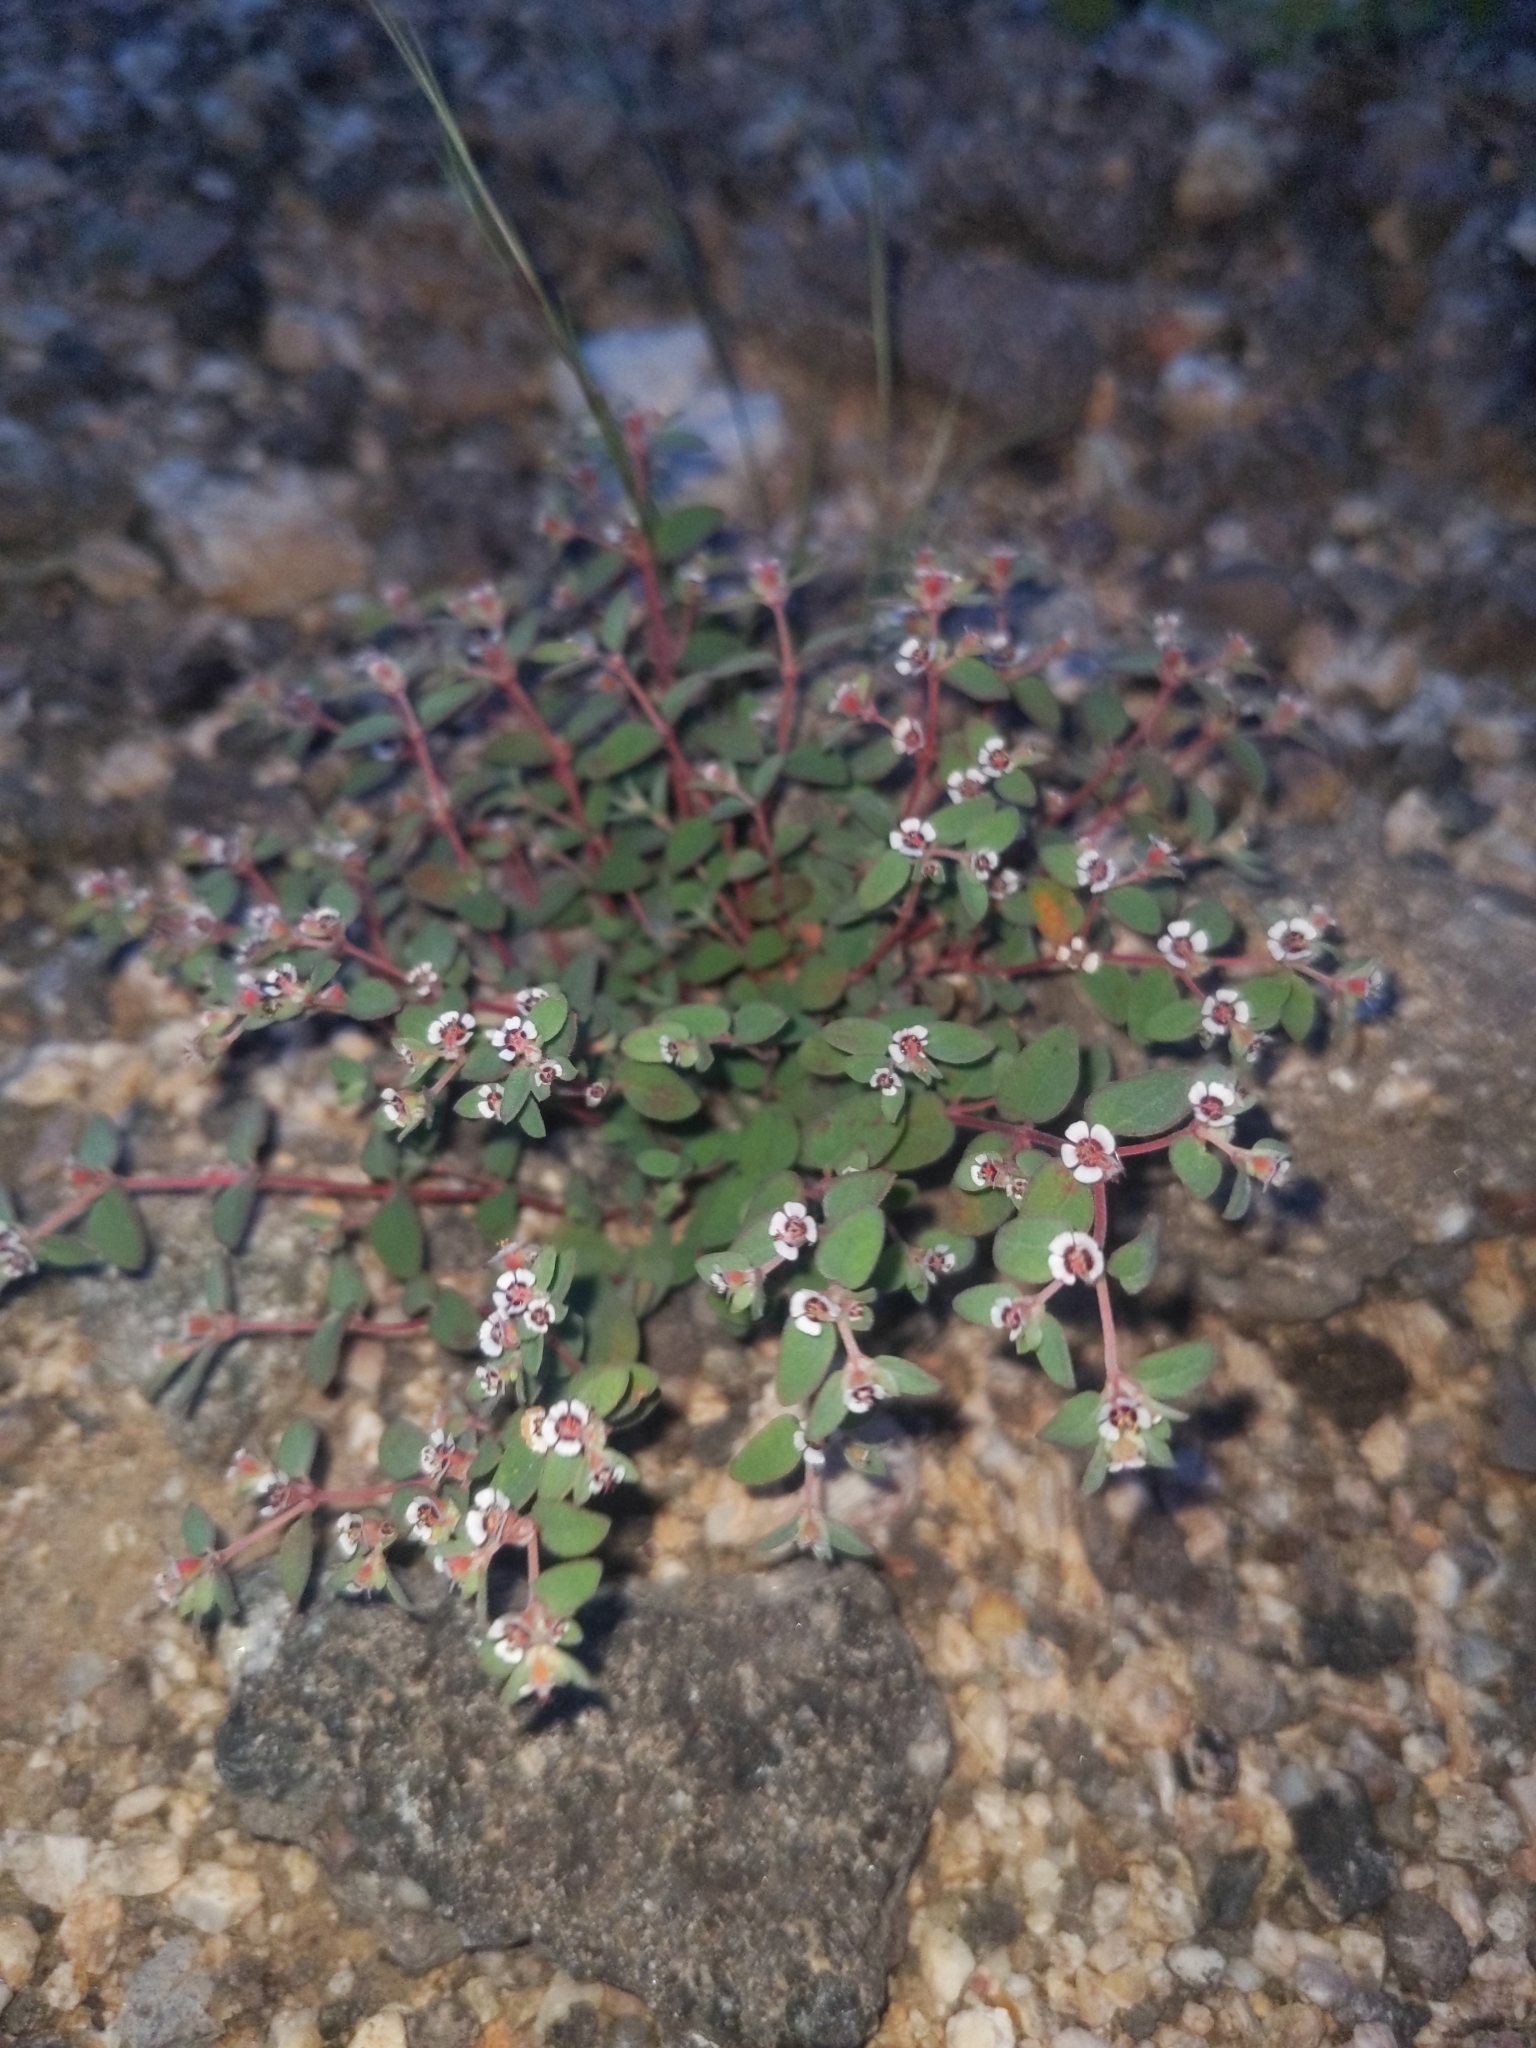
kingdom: Plantae
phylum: Tracheophyta
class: Magnoliopsida
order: Malpighiales
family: Euphorbiaceae
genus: Euphorbia
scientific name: Euphorbia melanadenia
